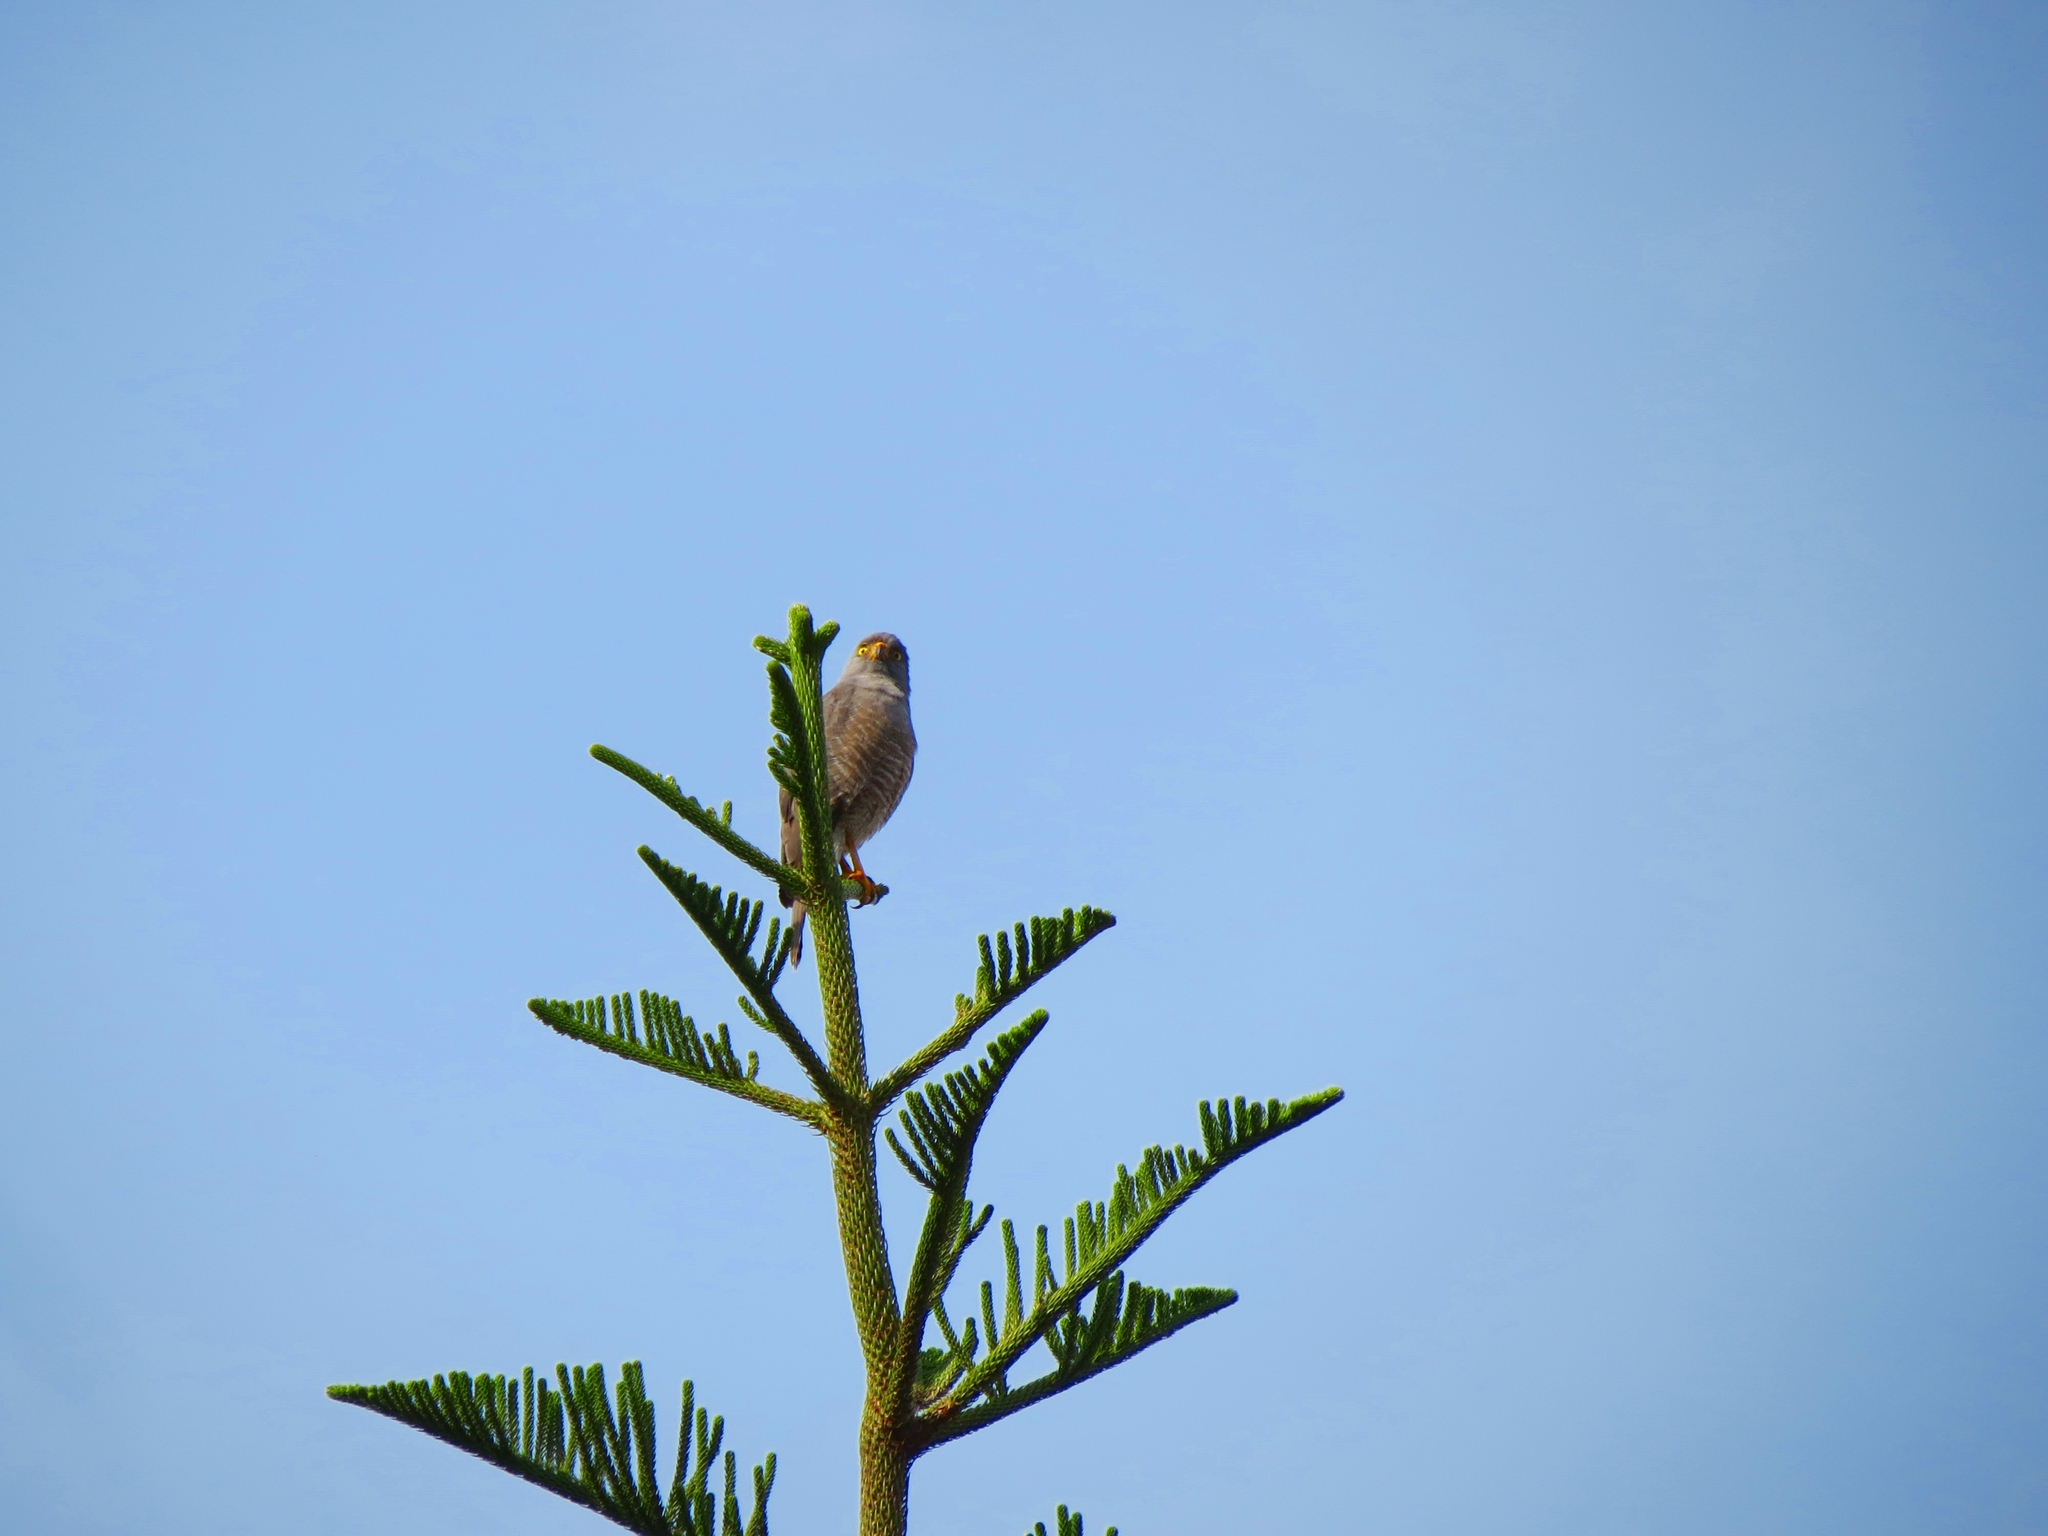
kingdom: Animalia
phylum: Chordata
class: Aves
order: Accipitriformes
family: Accipitridae
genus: Rupornis
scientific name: Rupornis magnirostris
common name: Roadside hawk
